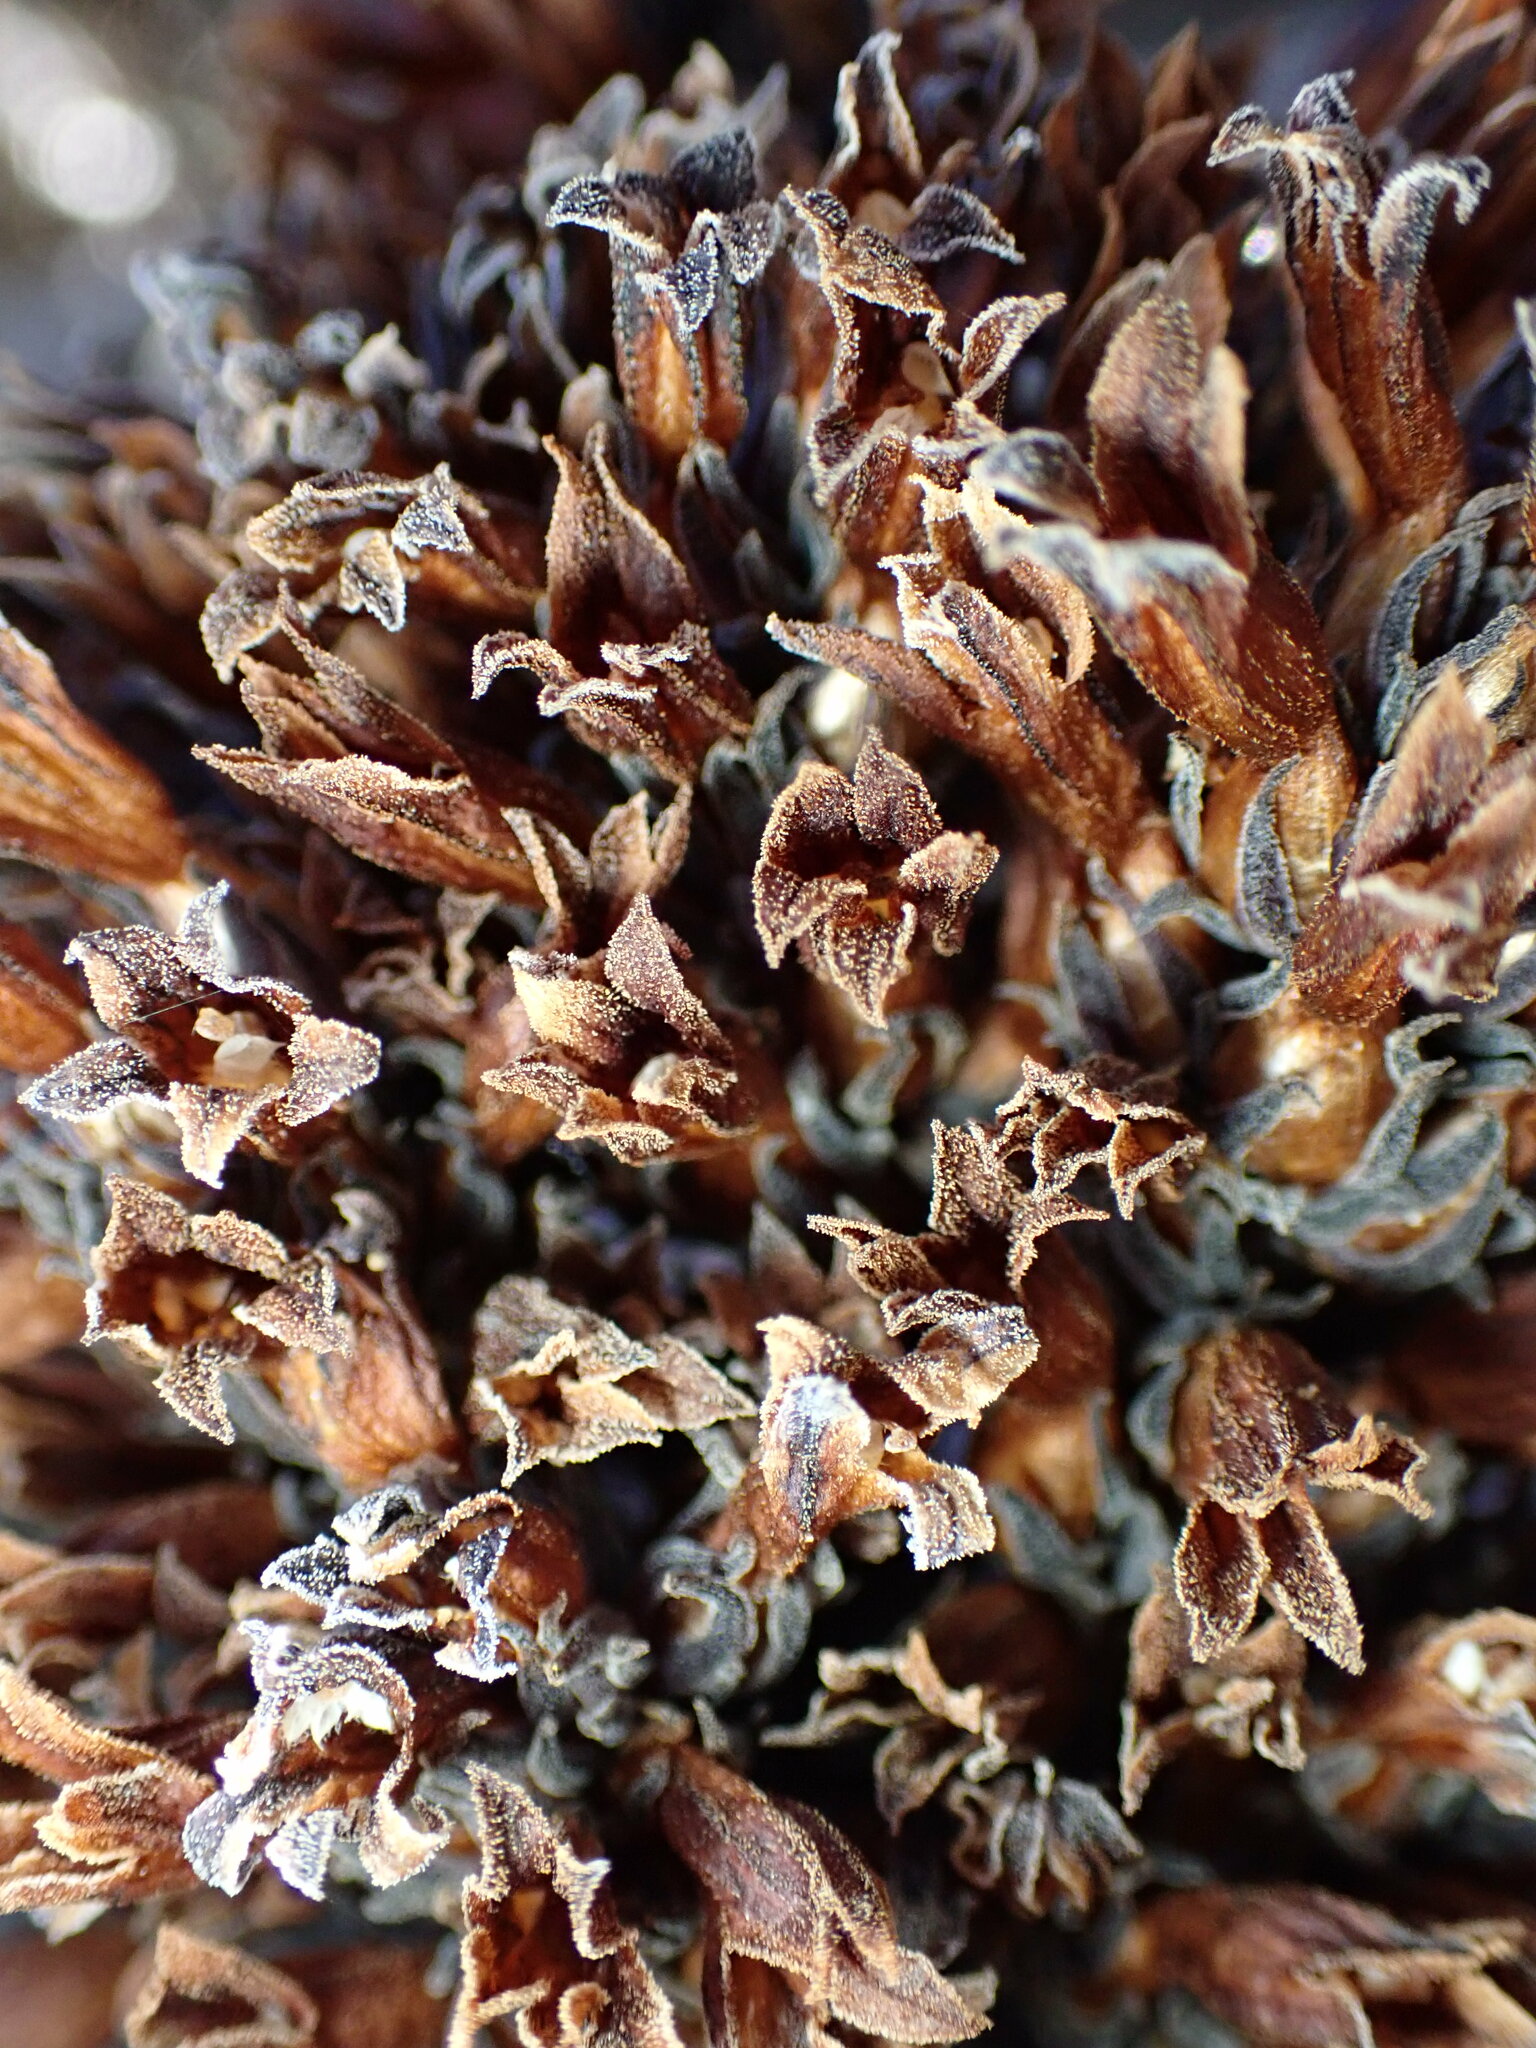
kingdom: Plantae
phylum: Tracheophyta
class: Magnoliopsida
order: Lamiales
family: Orobanchaceae
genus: Aphyllon
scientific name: Aphyllon tuberosum
